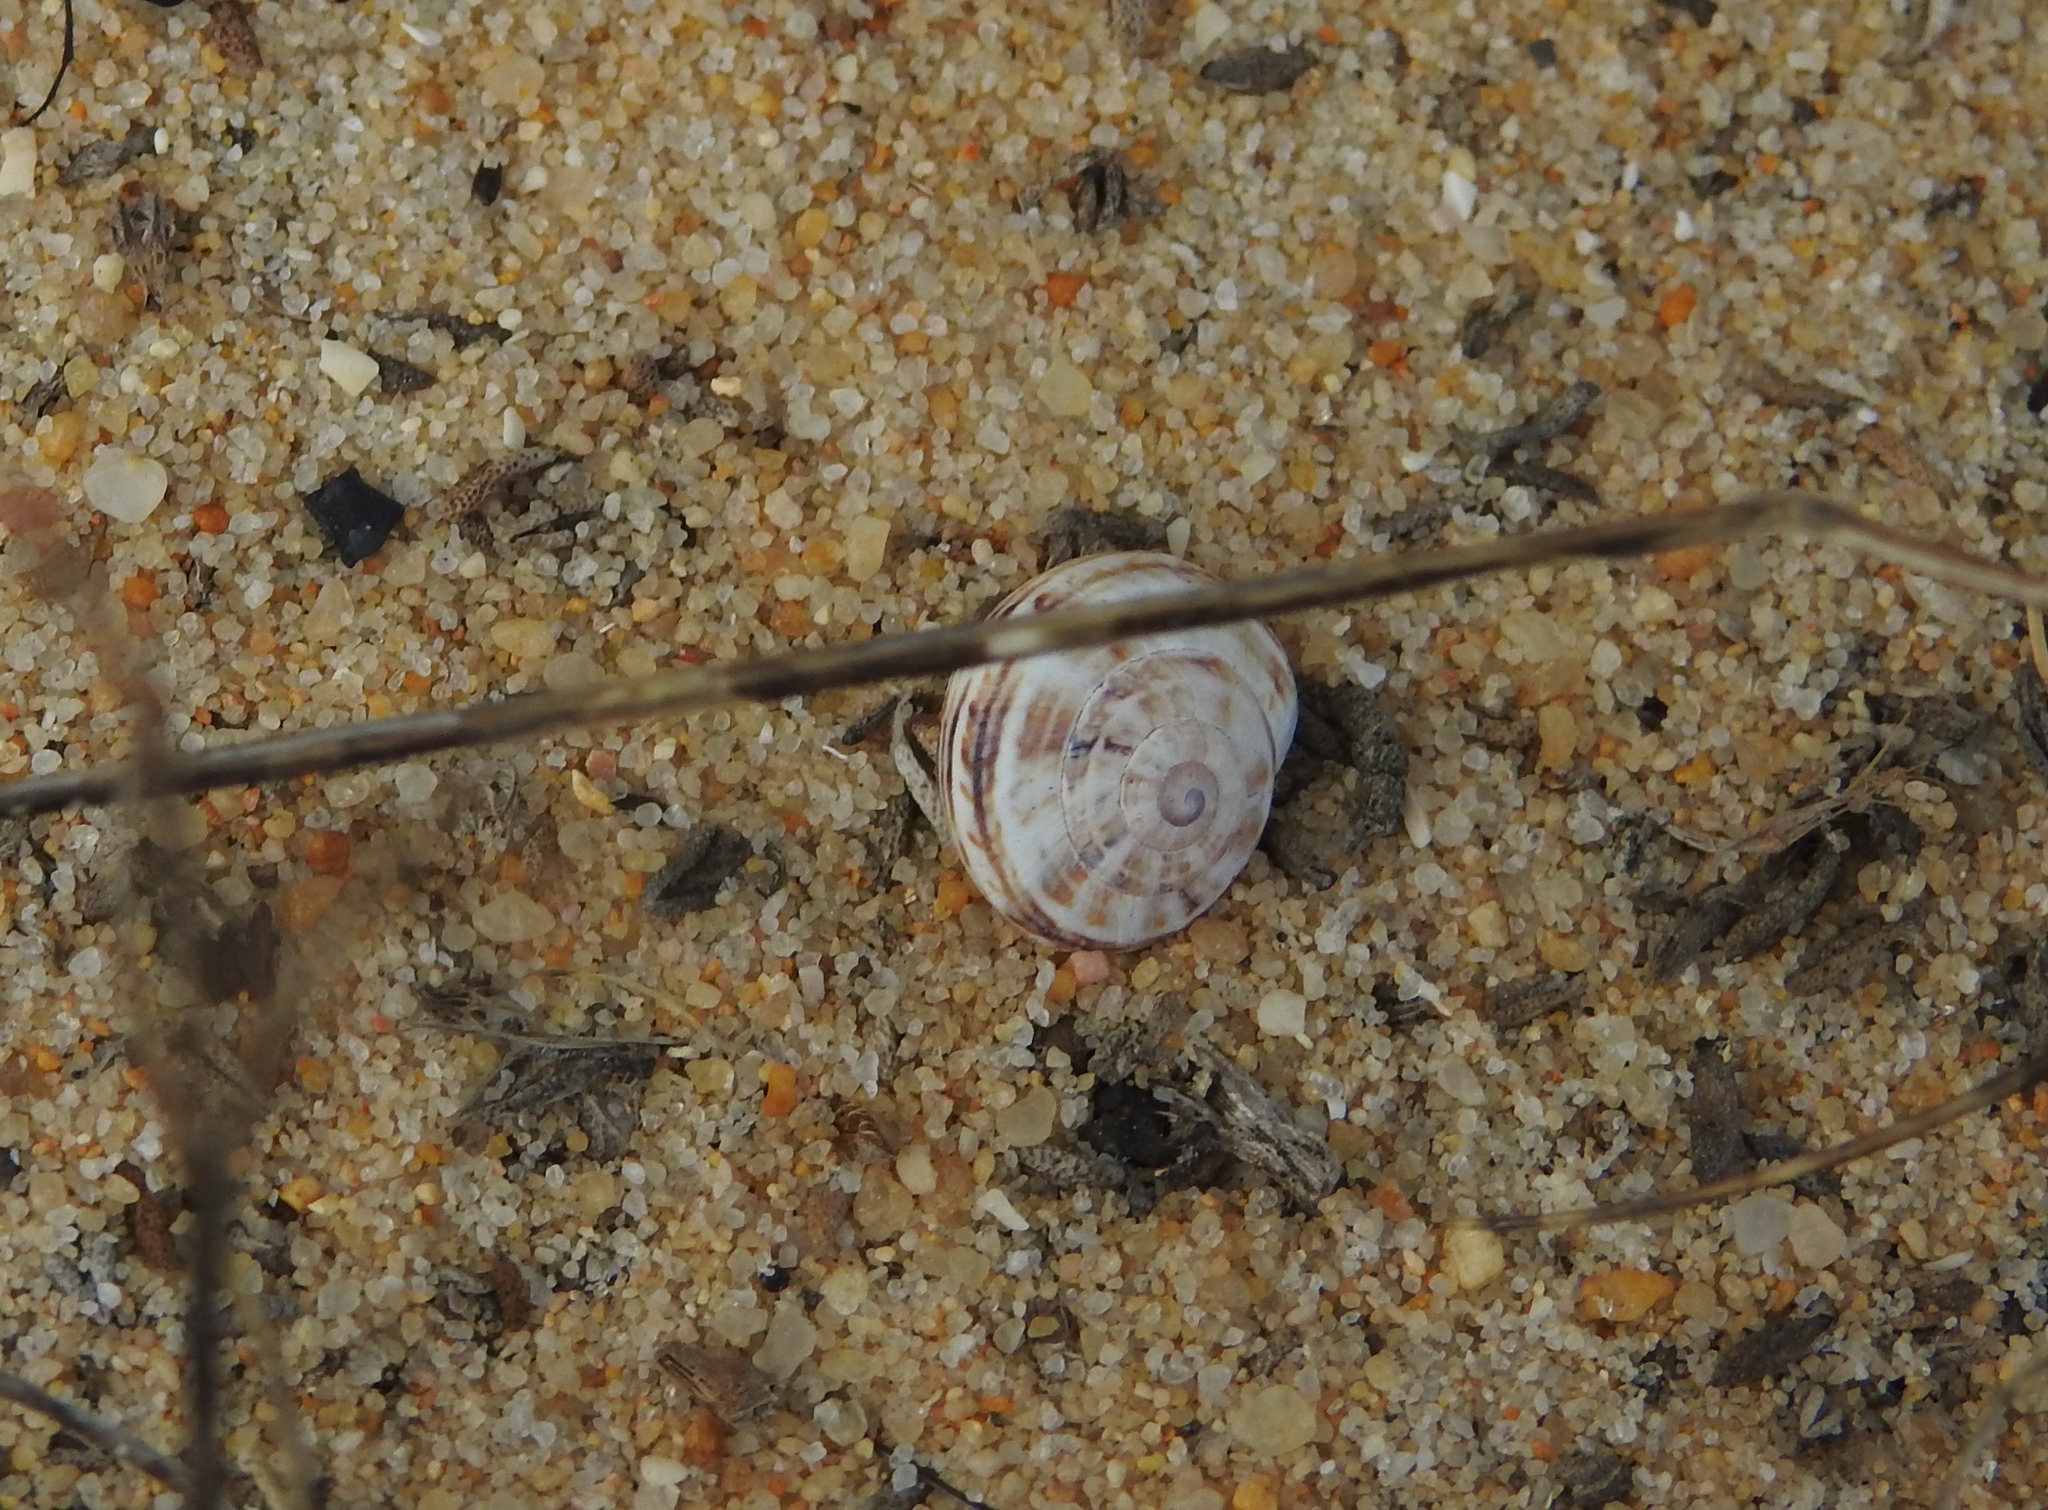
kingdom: Animalia
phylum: Mollusca
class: Gastropoda
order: Stylommatophora
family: Helicidae
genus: Theba
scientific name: Theba pisana
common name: White snail
